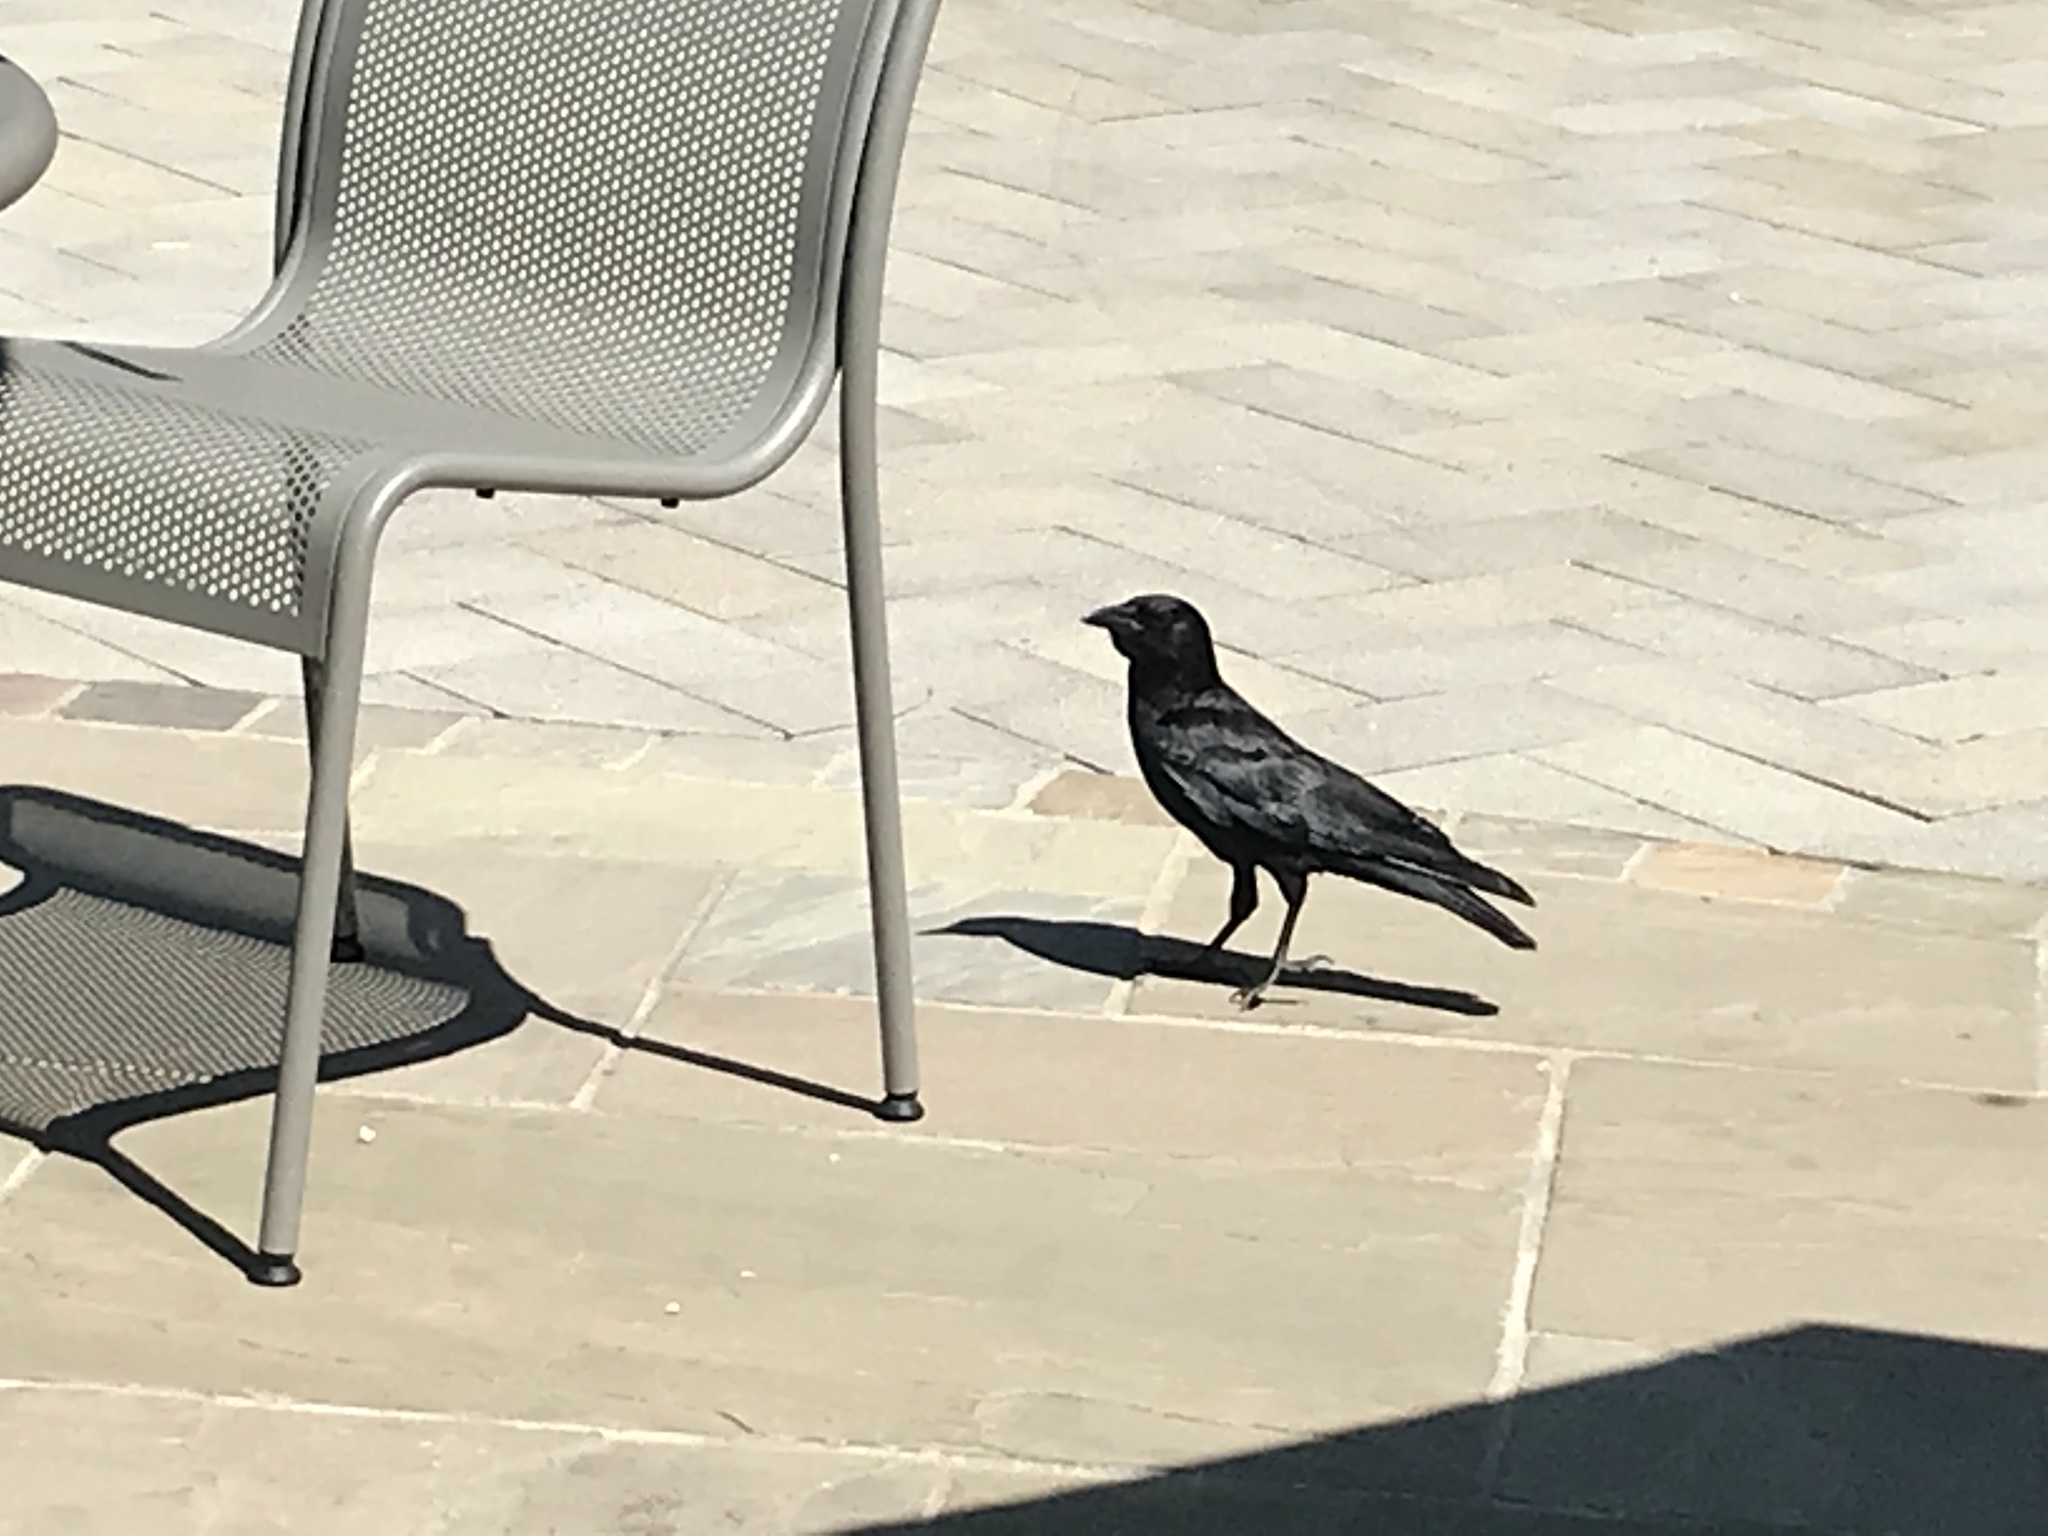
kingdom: Animalia
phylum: Chordata
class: Aves
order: Passeriformes
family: Corvidae
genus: Corvus
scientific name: Corvus brachyrhynchos
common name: American crow
